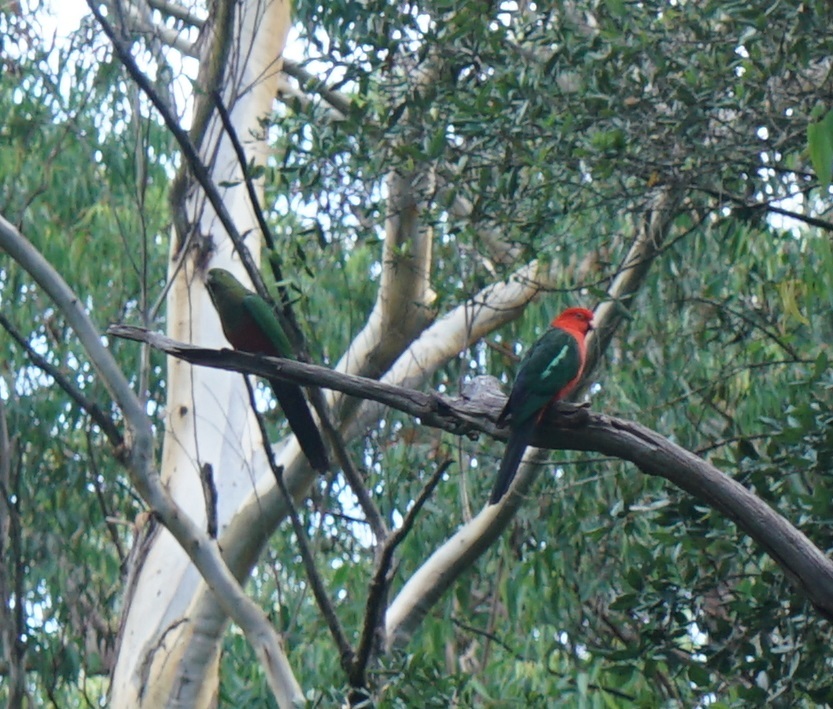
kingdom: Animalia
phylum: Chordata
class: Aves
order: Psittaciformes
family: Psittacidae
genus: Alisterus
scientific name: Alisterus scapularis
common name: Australian king parrot
